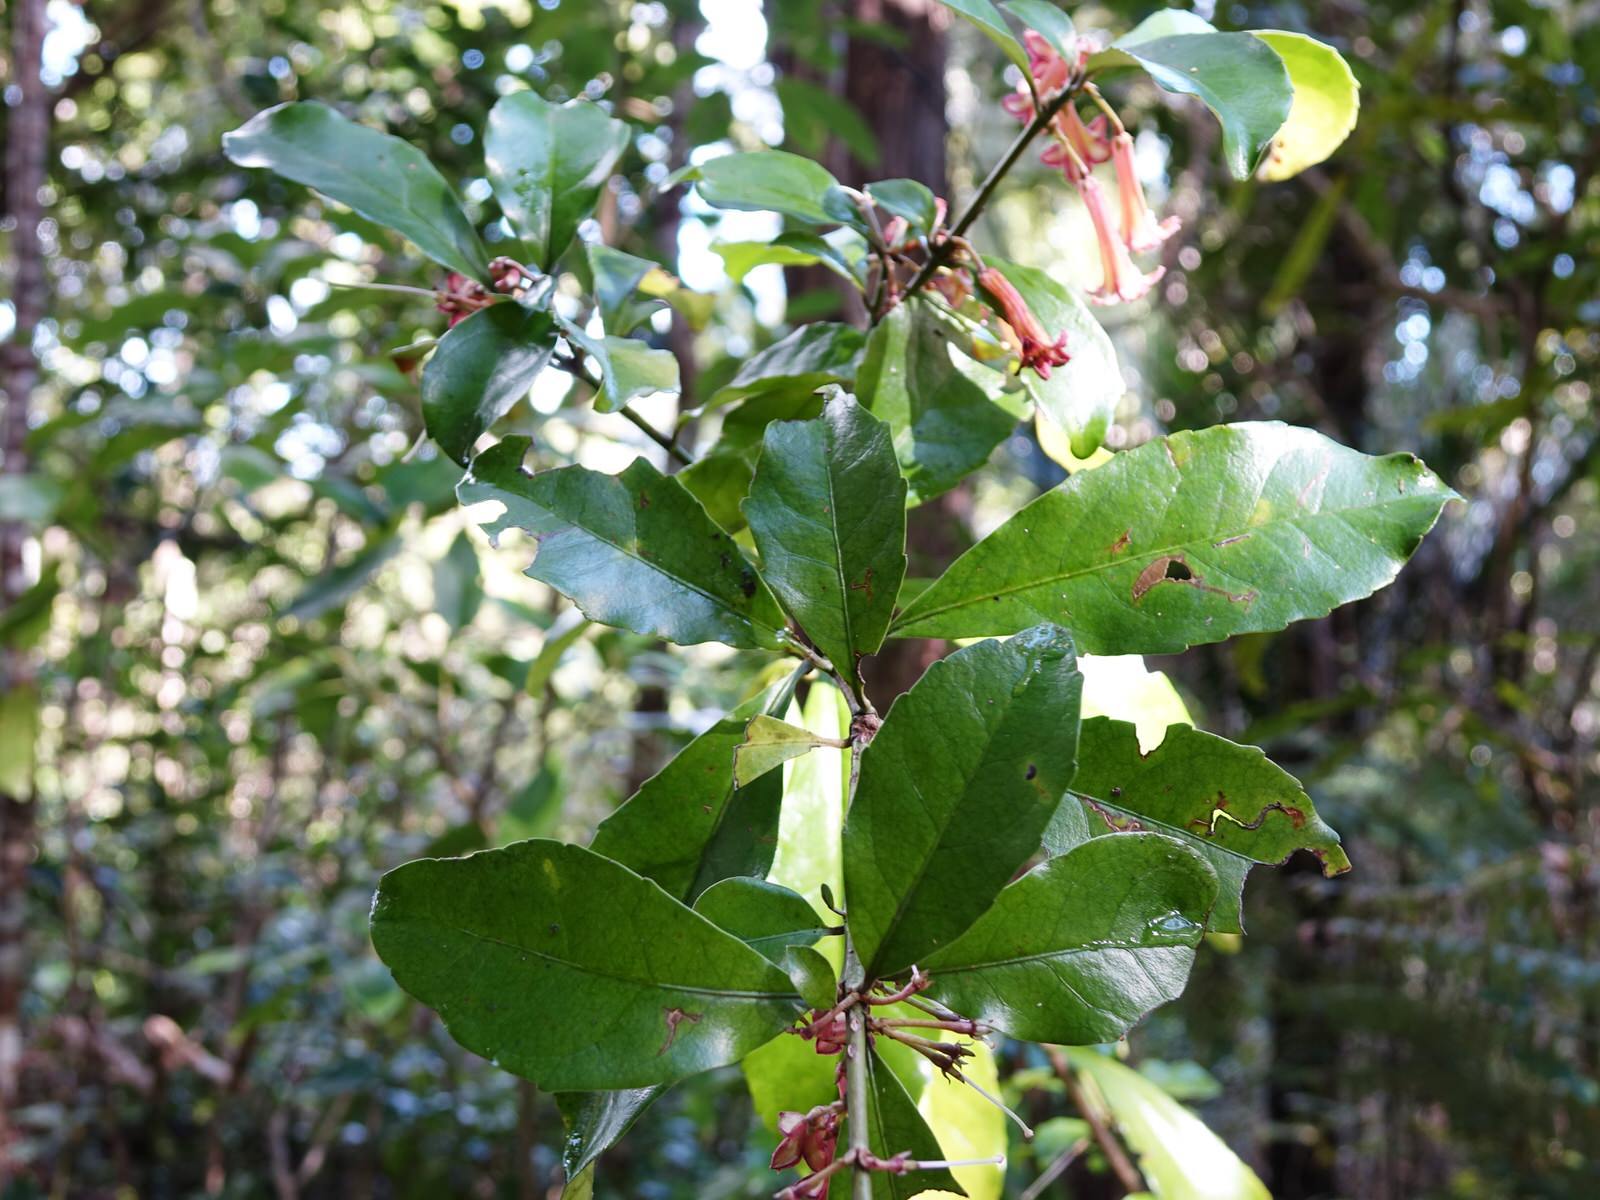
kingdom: Plantae
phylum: Tracheophyta
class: Magnoliopsida
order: Asterales
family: Alseuosmiaceae
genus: Alseuosmia
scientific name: Alseuosmia macrophylla
